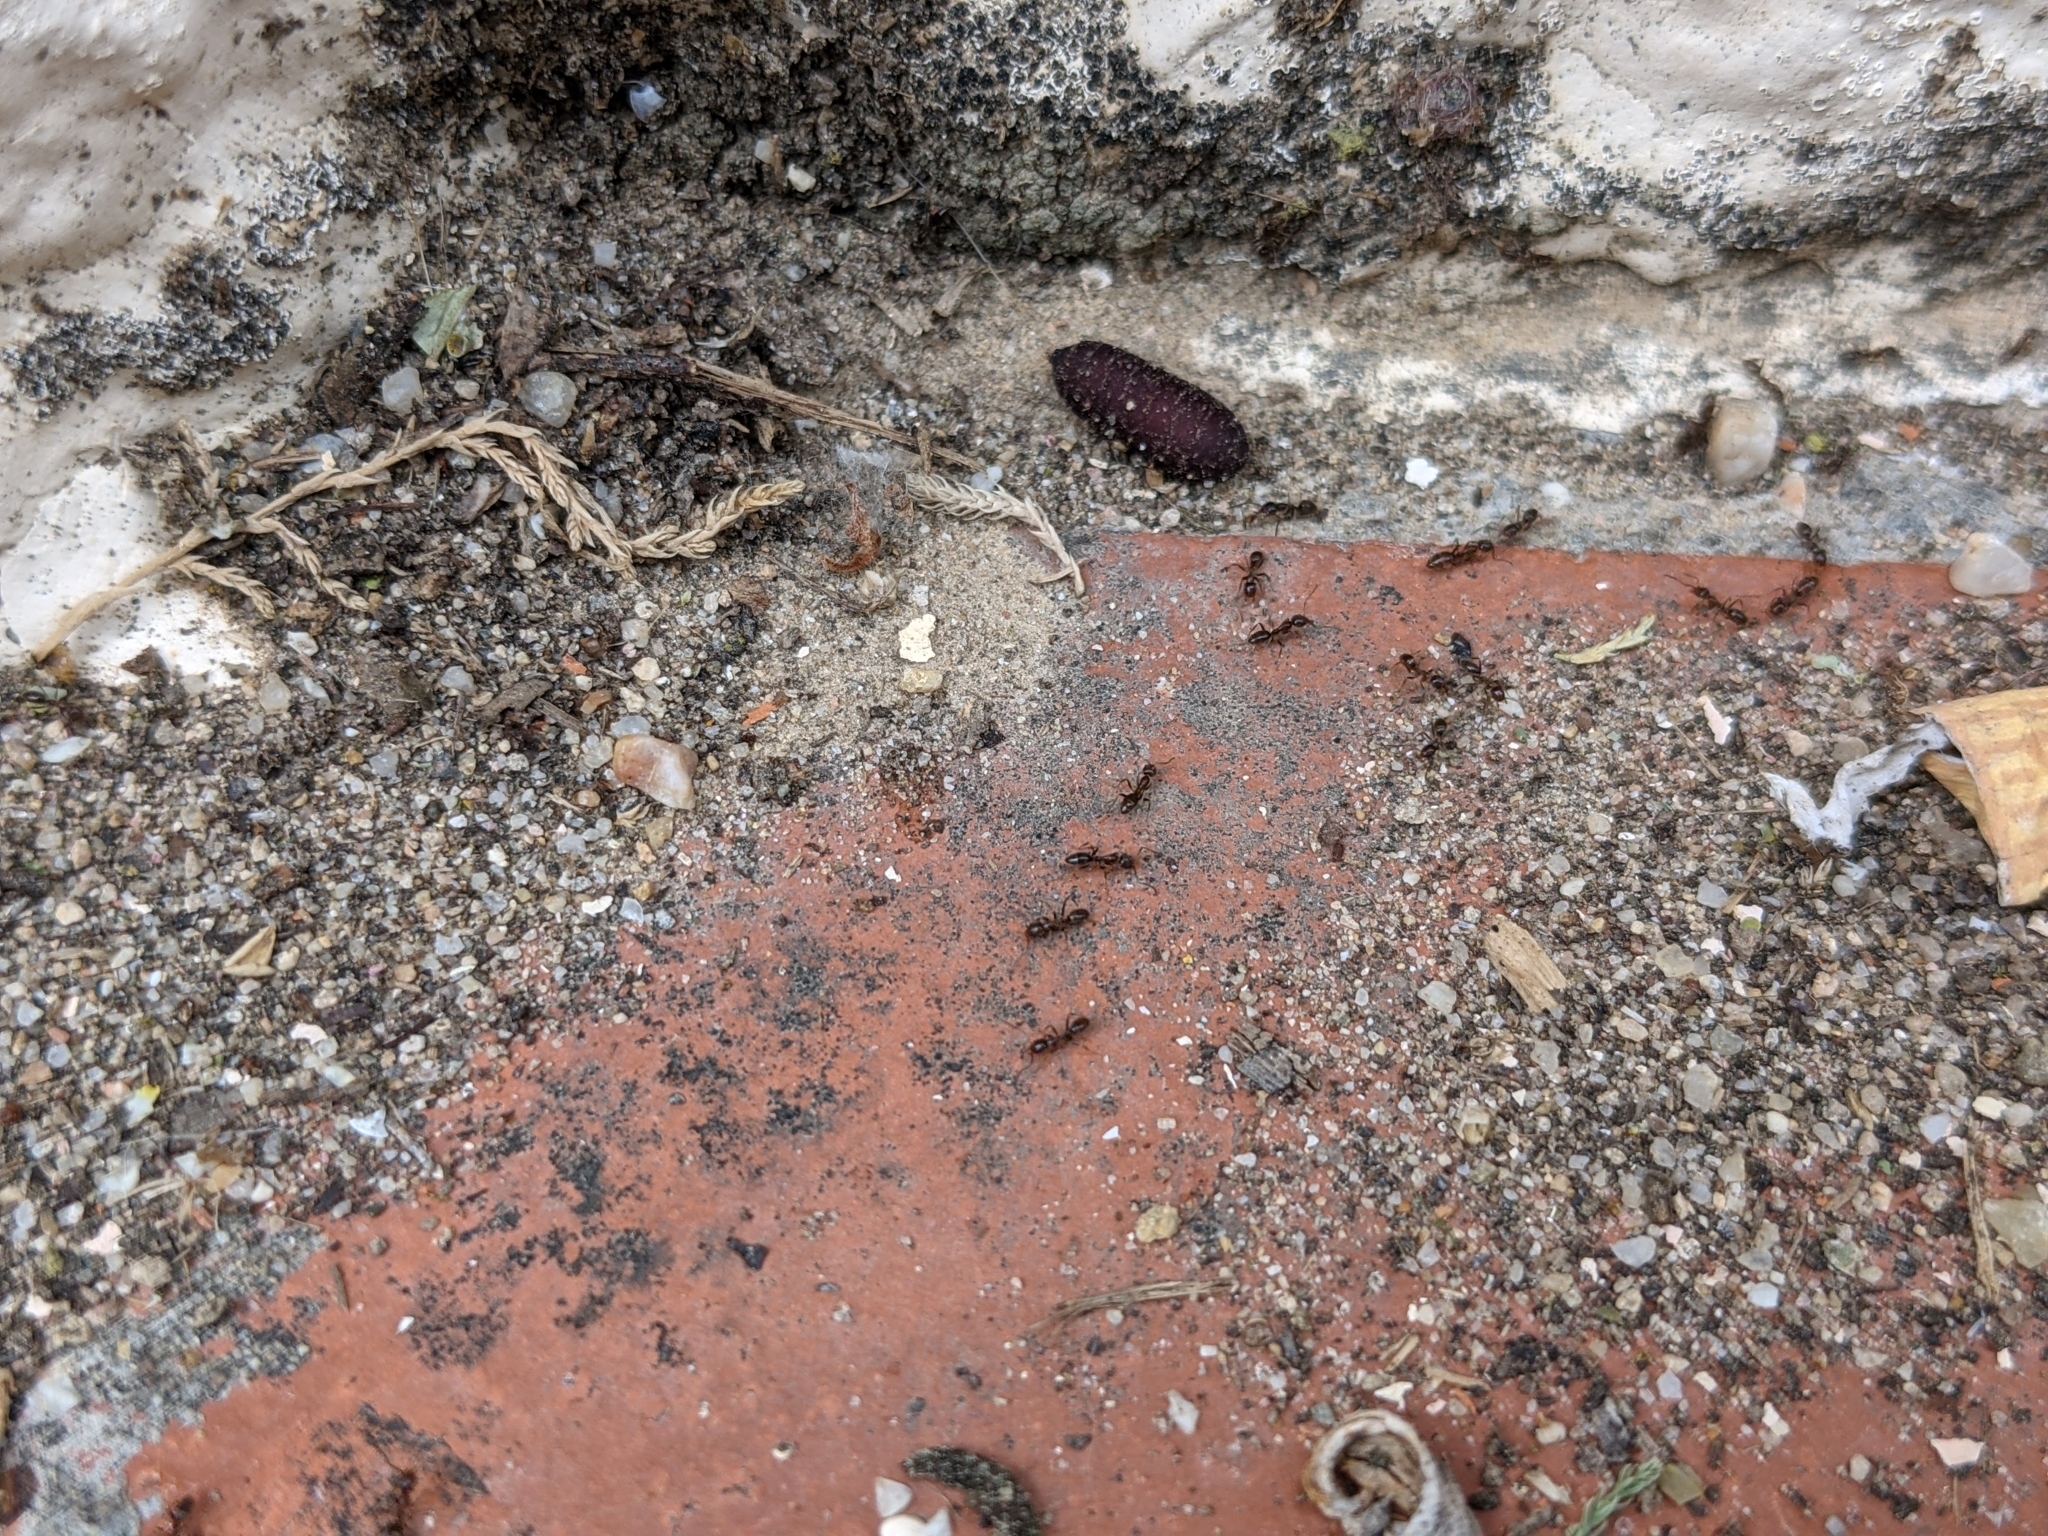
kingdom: Animalia
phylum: Arthropoda
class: Insecta
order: Hymenoptera
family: Formicidae
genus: Linepithema
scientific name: Linepithema humile
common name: Argentine ant
